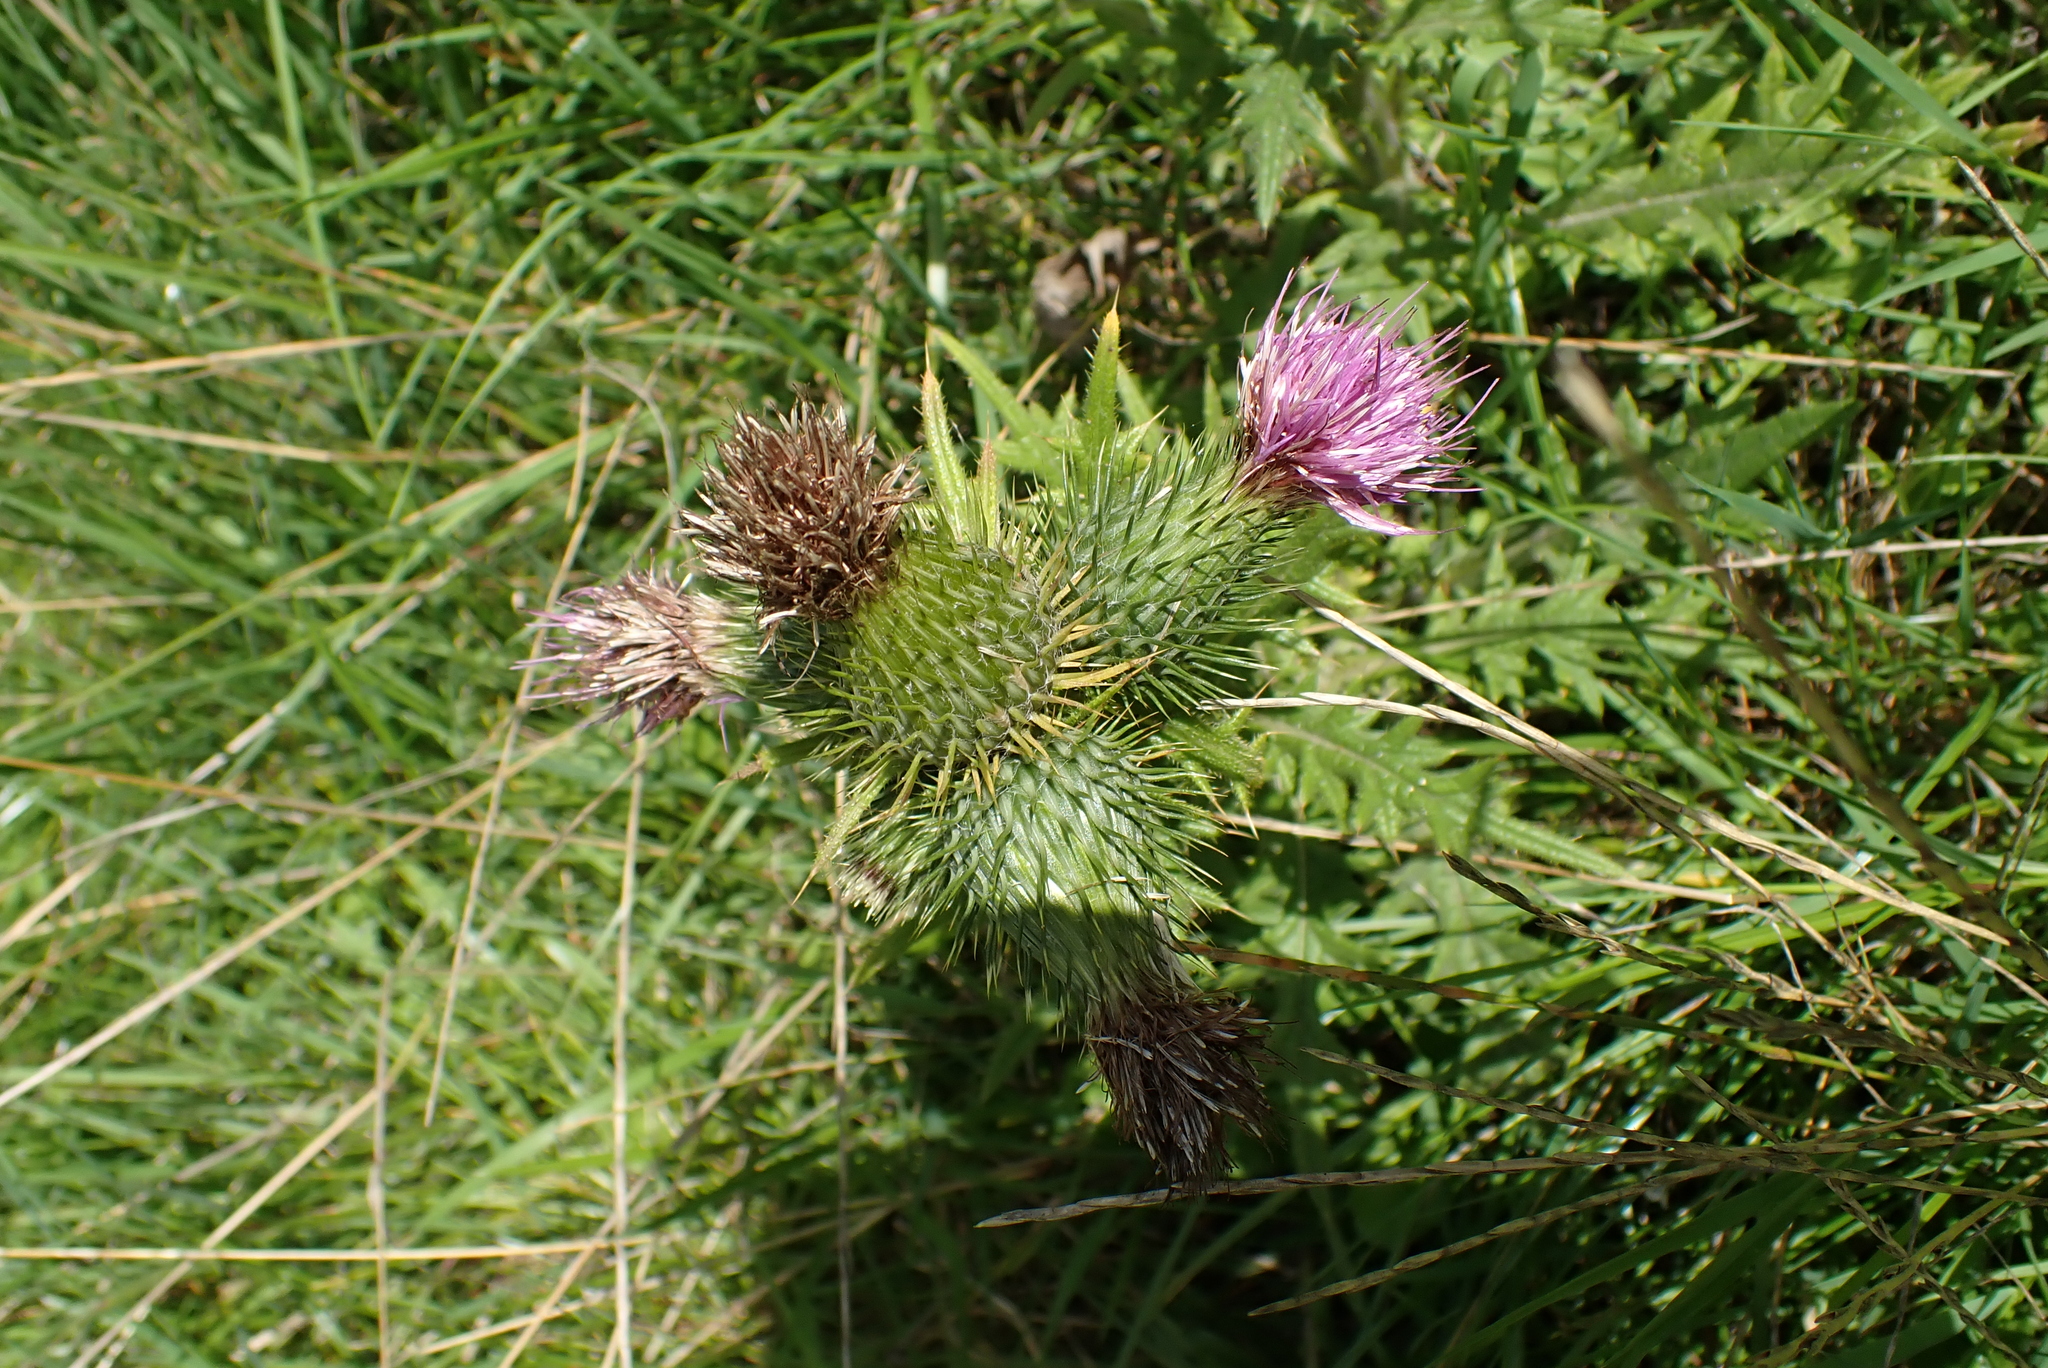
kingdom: Plantae
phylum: Tracheophyta
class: Magnoliopsida
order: Asterales
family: Asteraceae
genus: Cirsium
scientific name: Cirsium vulgare
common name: Bull thistle
